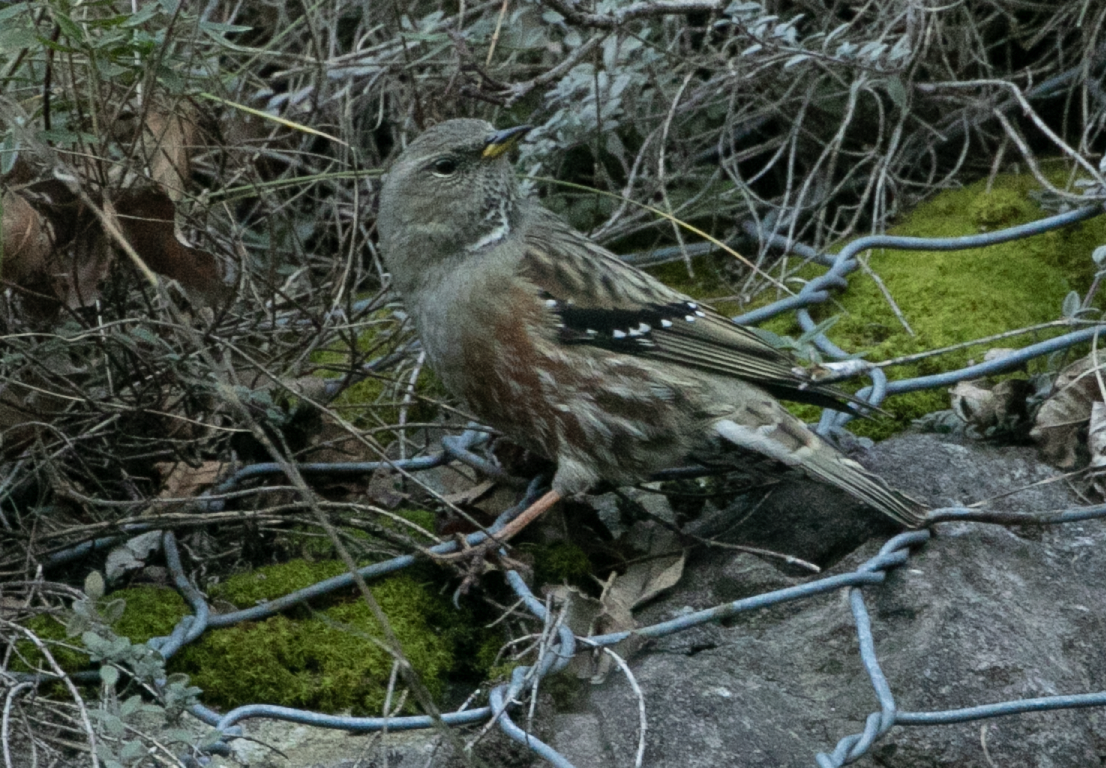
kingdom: Animalia
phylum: Chordata
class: Aves
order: Passeriformes
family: Prunellidae
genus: Prunella
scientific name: Prunella collaris
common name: Alpine accentor
